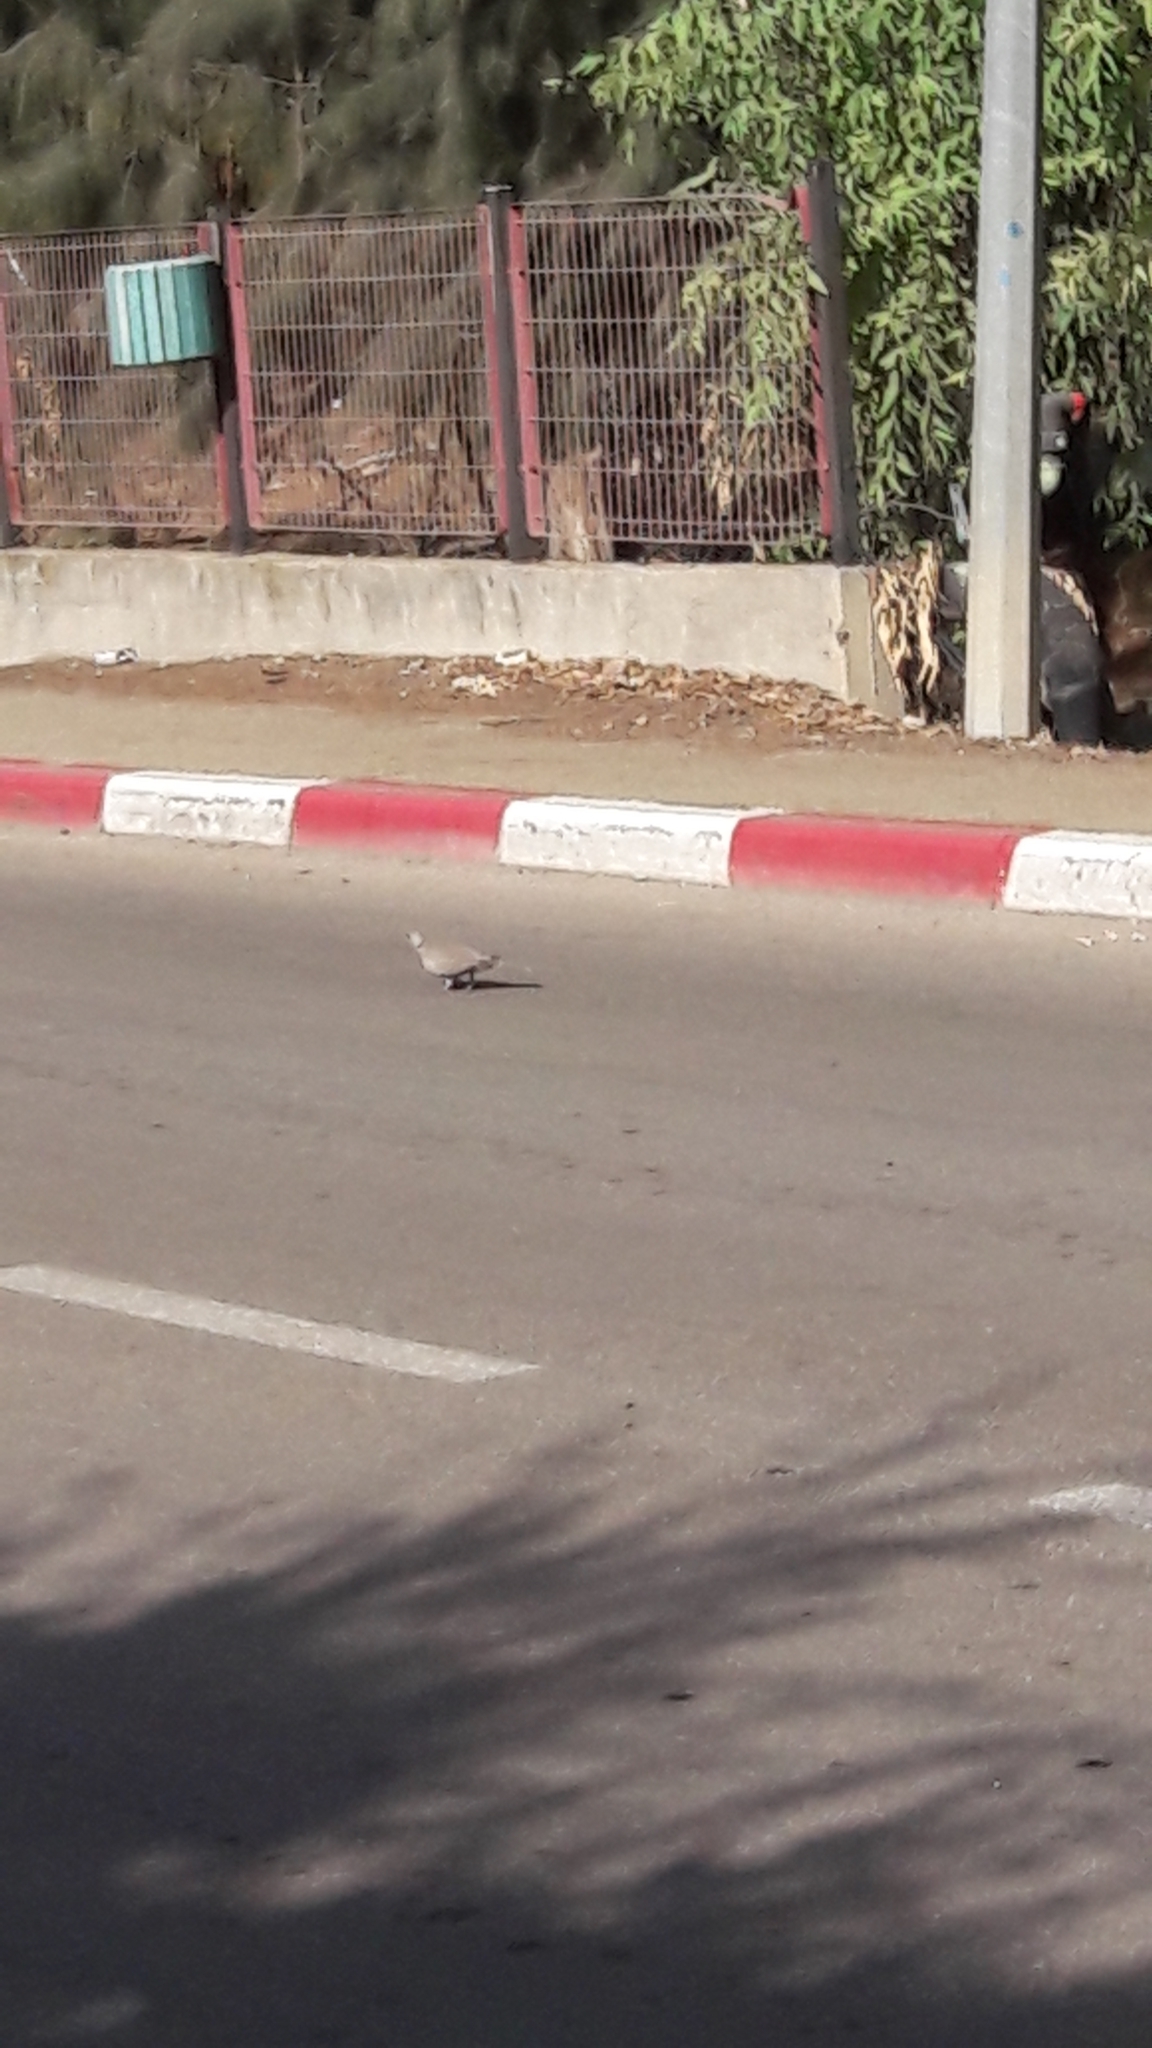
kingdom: Animalia
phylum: Chordata
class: Aves
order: Columbiformes
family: Columbidae
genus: Streptopelia
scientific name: Streptopelia decaocto
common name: Eurasian collared dove
